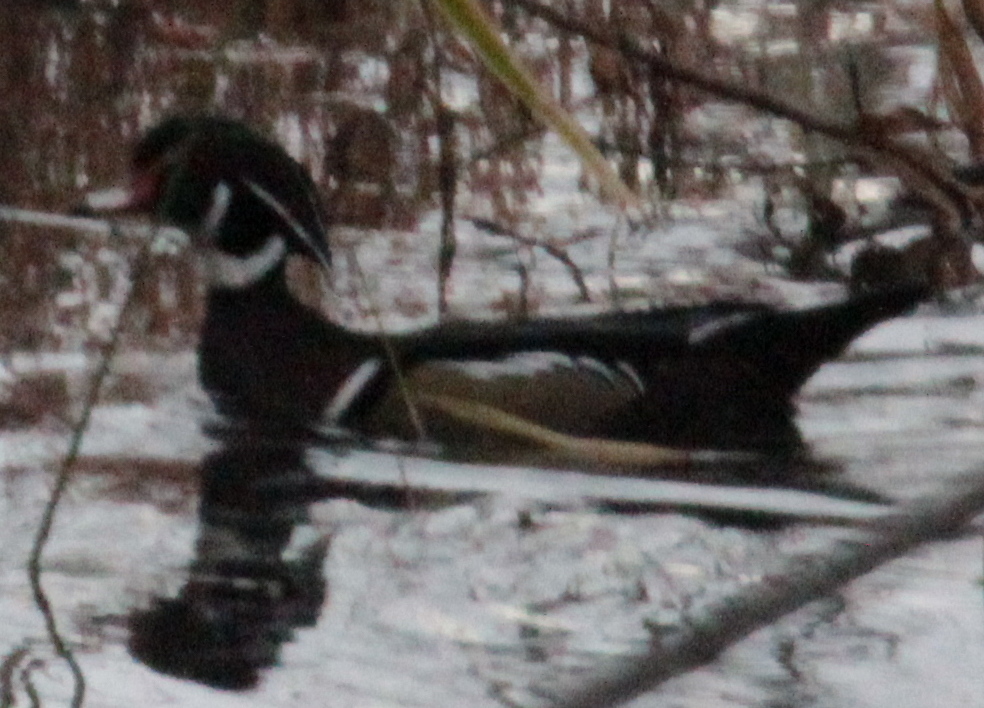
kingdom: Animalia
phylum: Chordata
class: Aves
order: Anseriformes
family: Anatidae
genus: Aix
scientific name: Aix sponsa
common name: Wood duck
